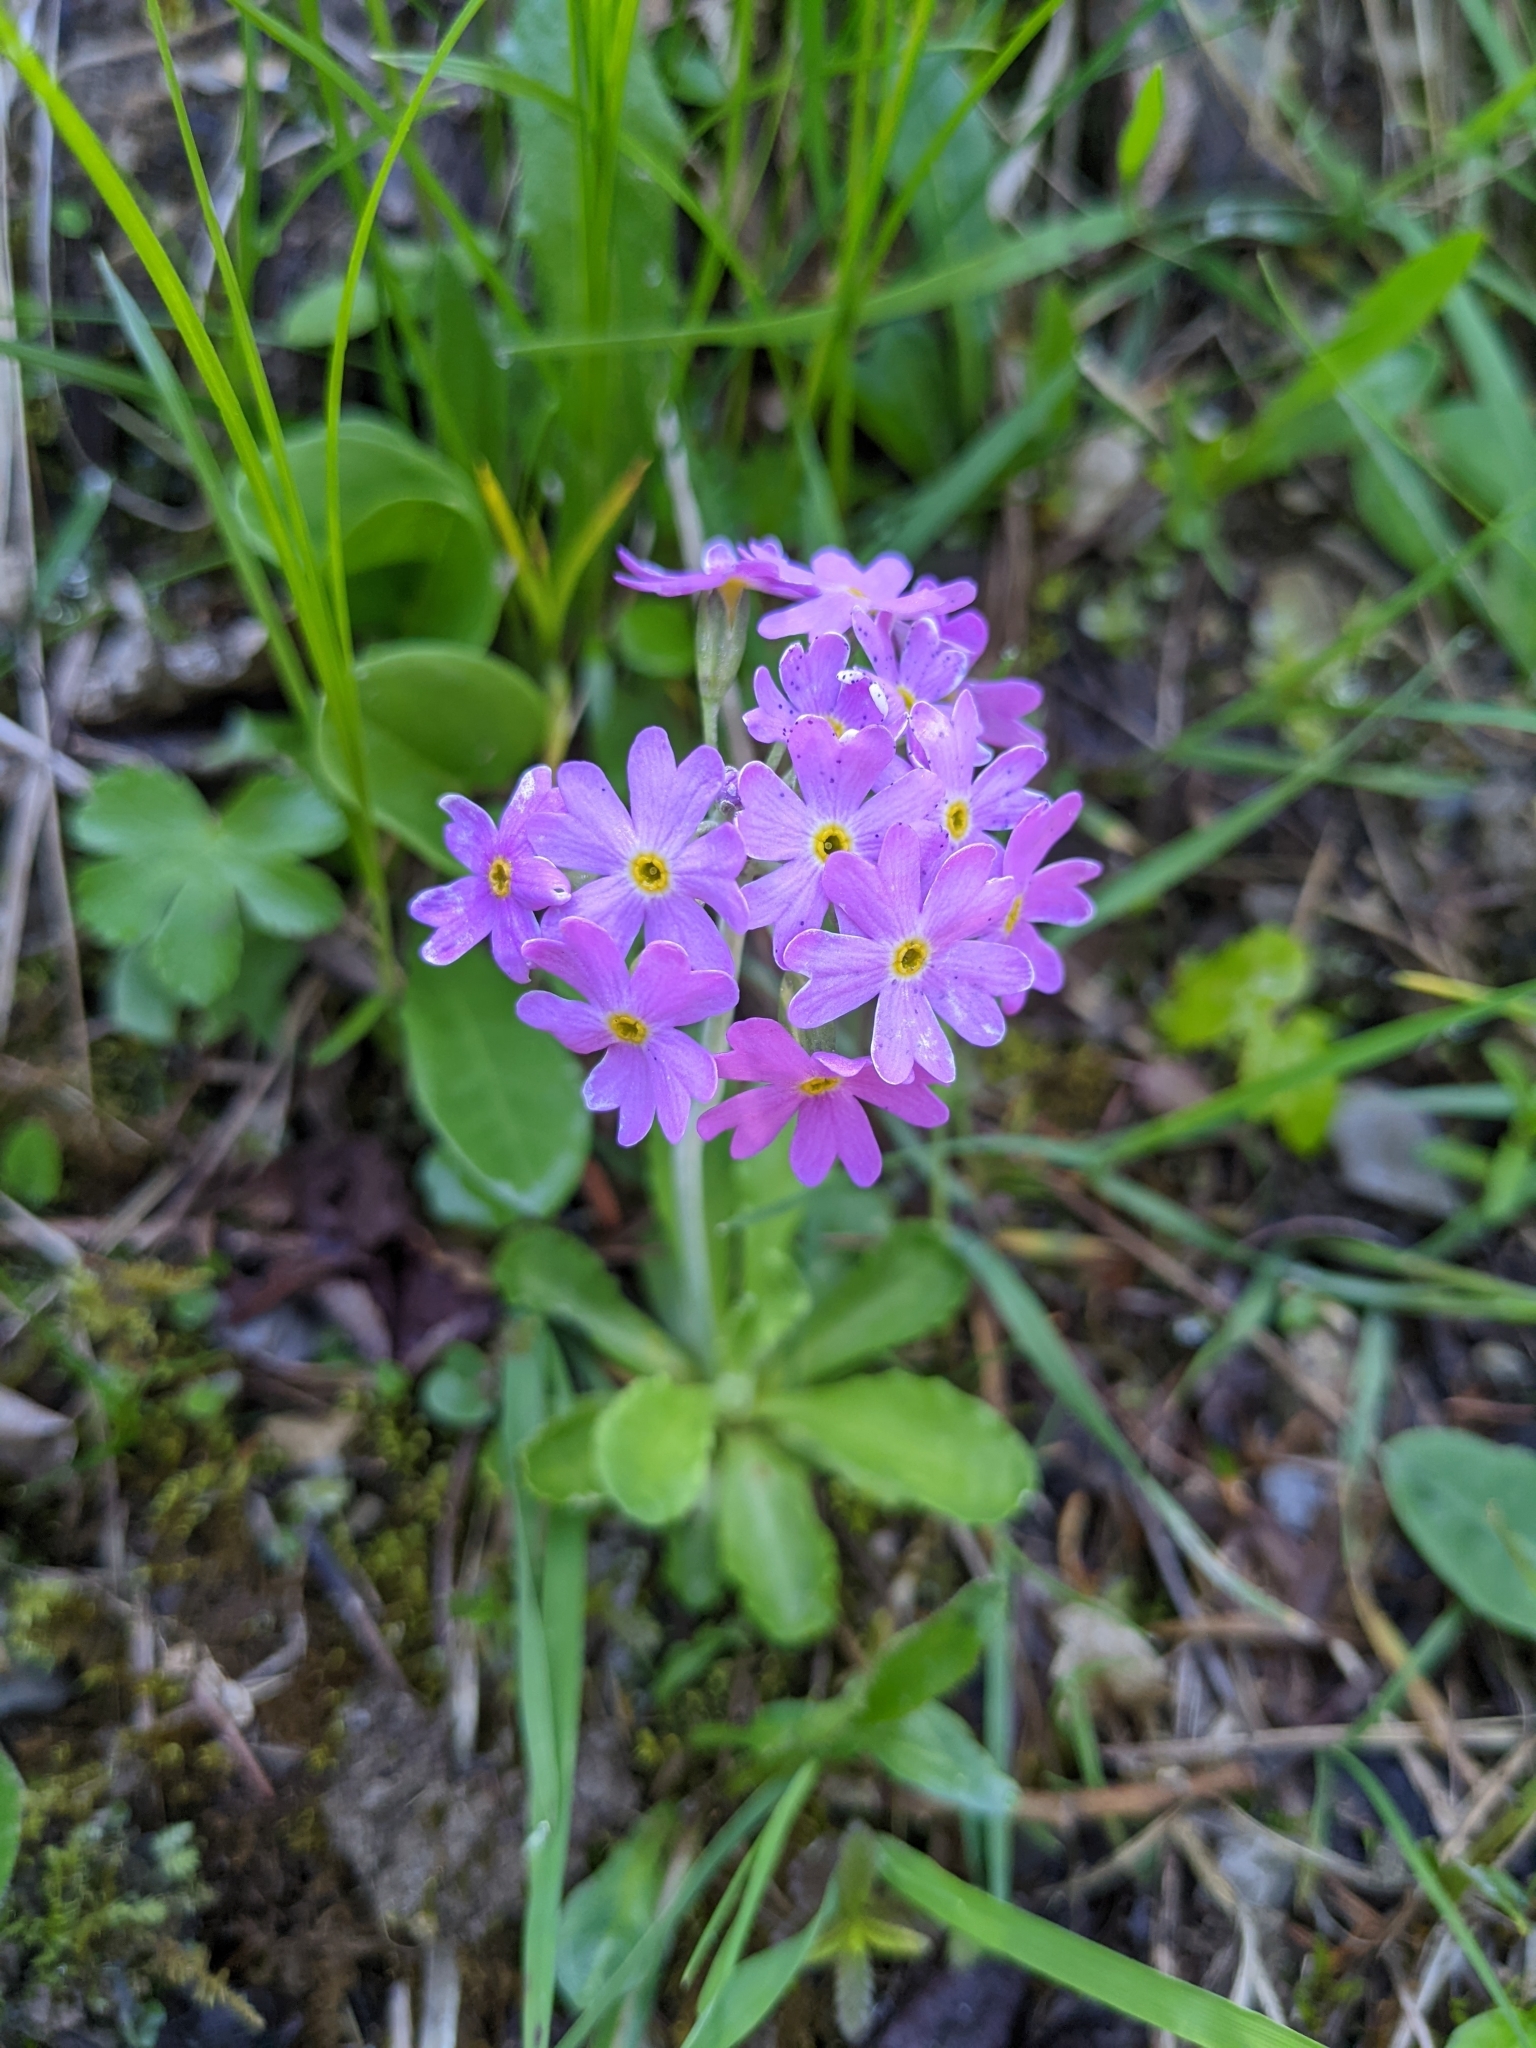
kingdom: Plantae
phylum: Tracheophyta
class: Magnoliopsida
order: Ericales
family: Primulaceae
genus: Primula
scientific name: Primula farinosa
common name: Bird's-eye primrose
